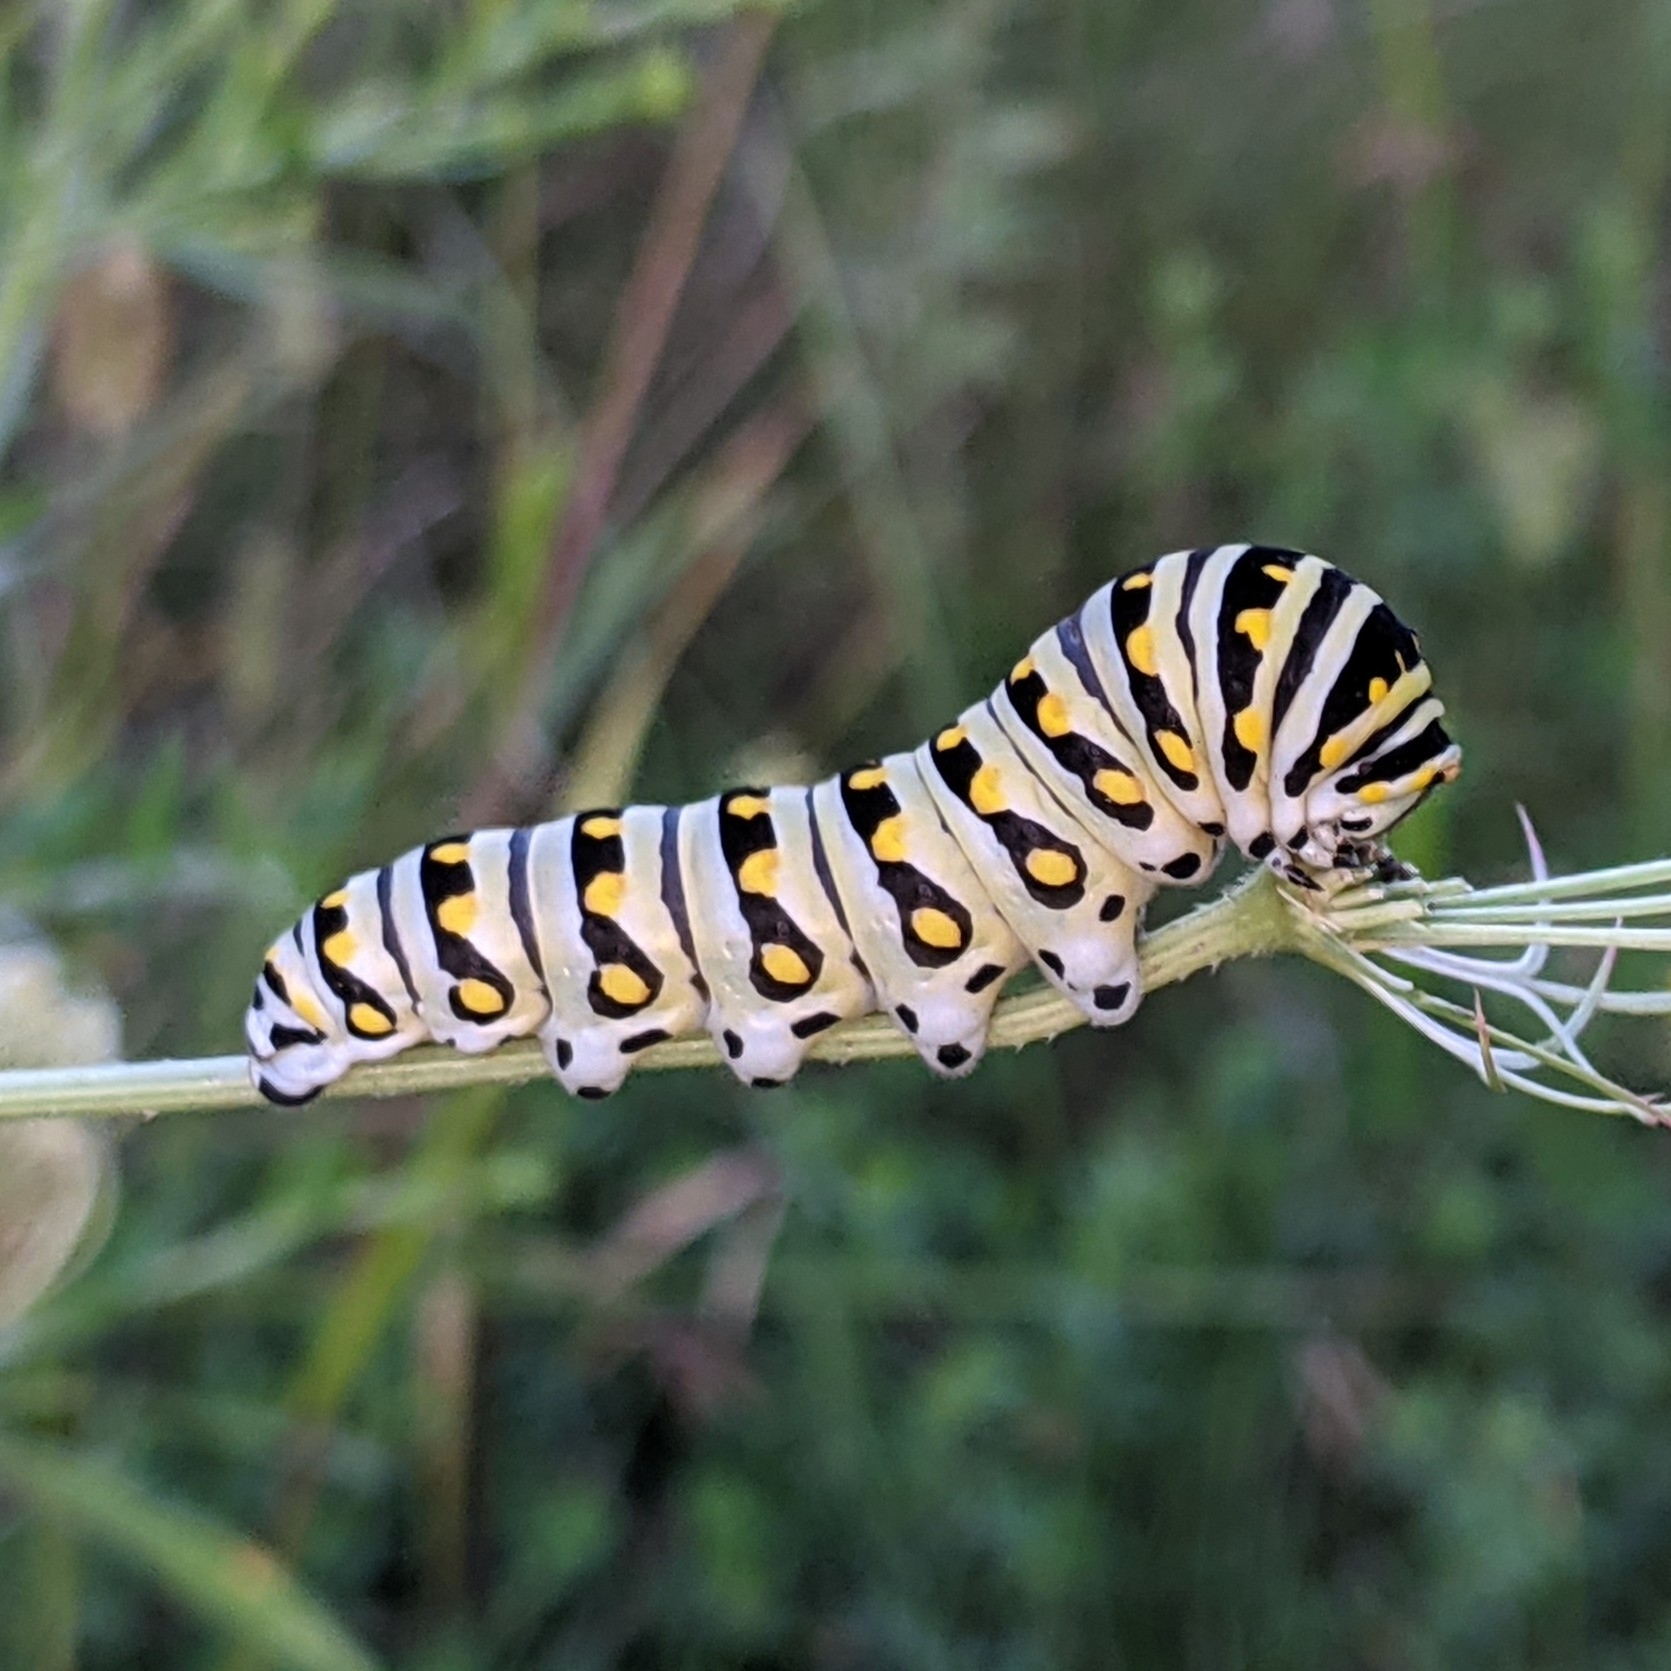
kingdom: Animalia
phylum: Arthropoda
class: Insecta
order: Lepidoptera
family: Papilionidae
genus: Papilio
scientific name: Papilio polyxenes
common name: Black swallowtail
